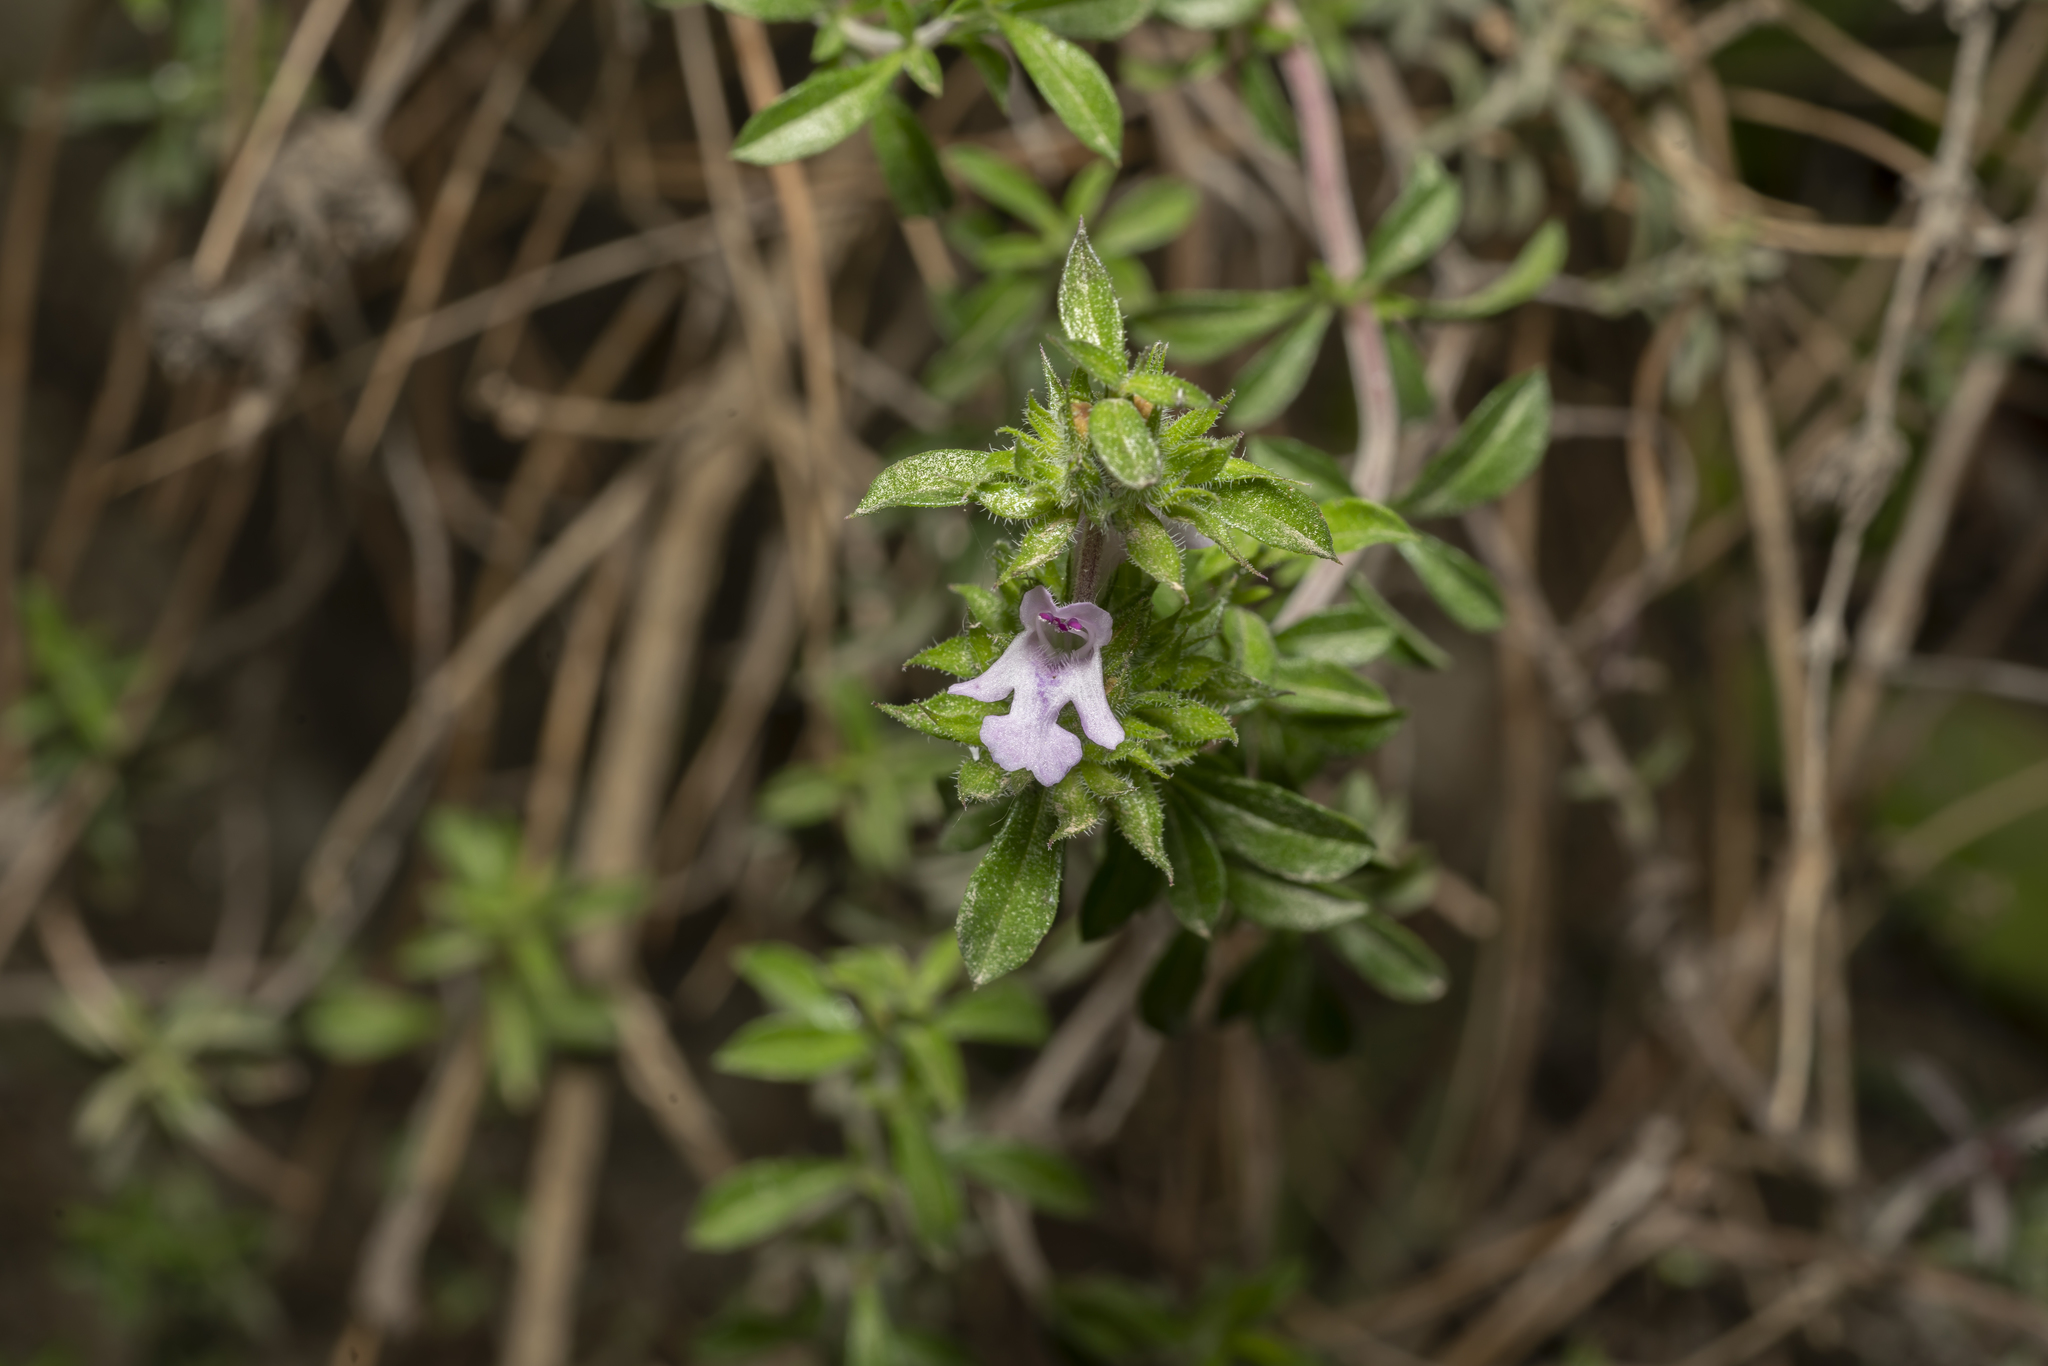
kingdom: Plantae
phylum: Tracheophyta
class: Magnoliopsida
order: Lamiales
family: Lamiaceae
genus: Satureja
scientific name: Satureja thymbra
